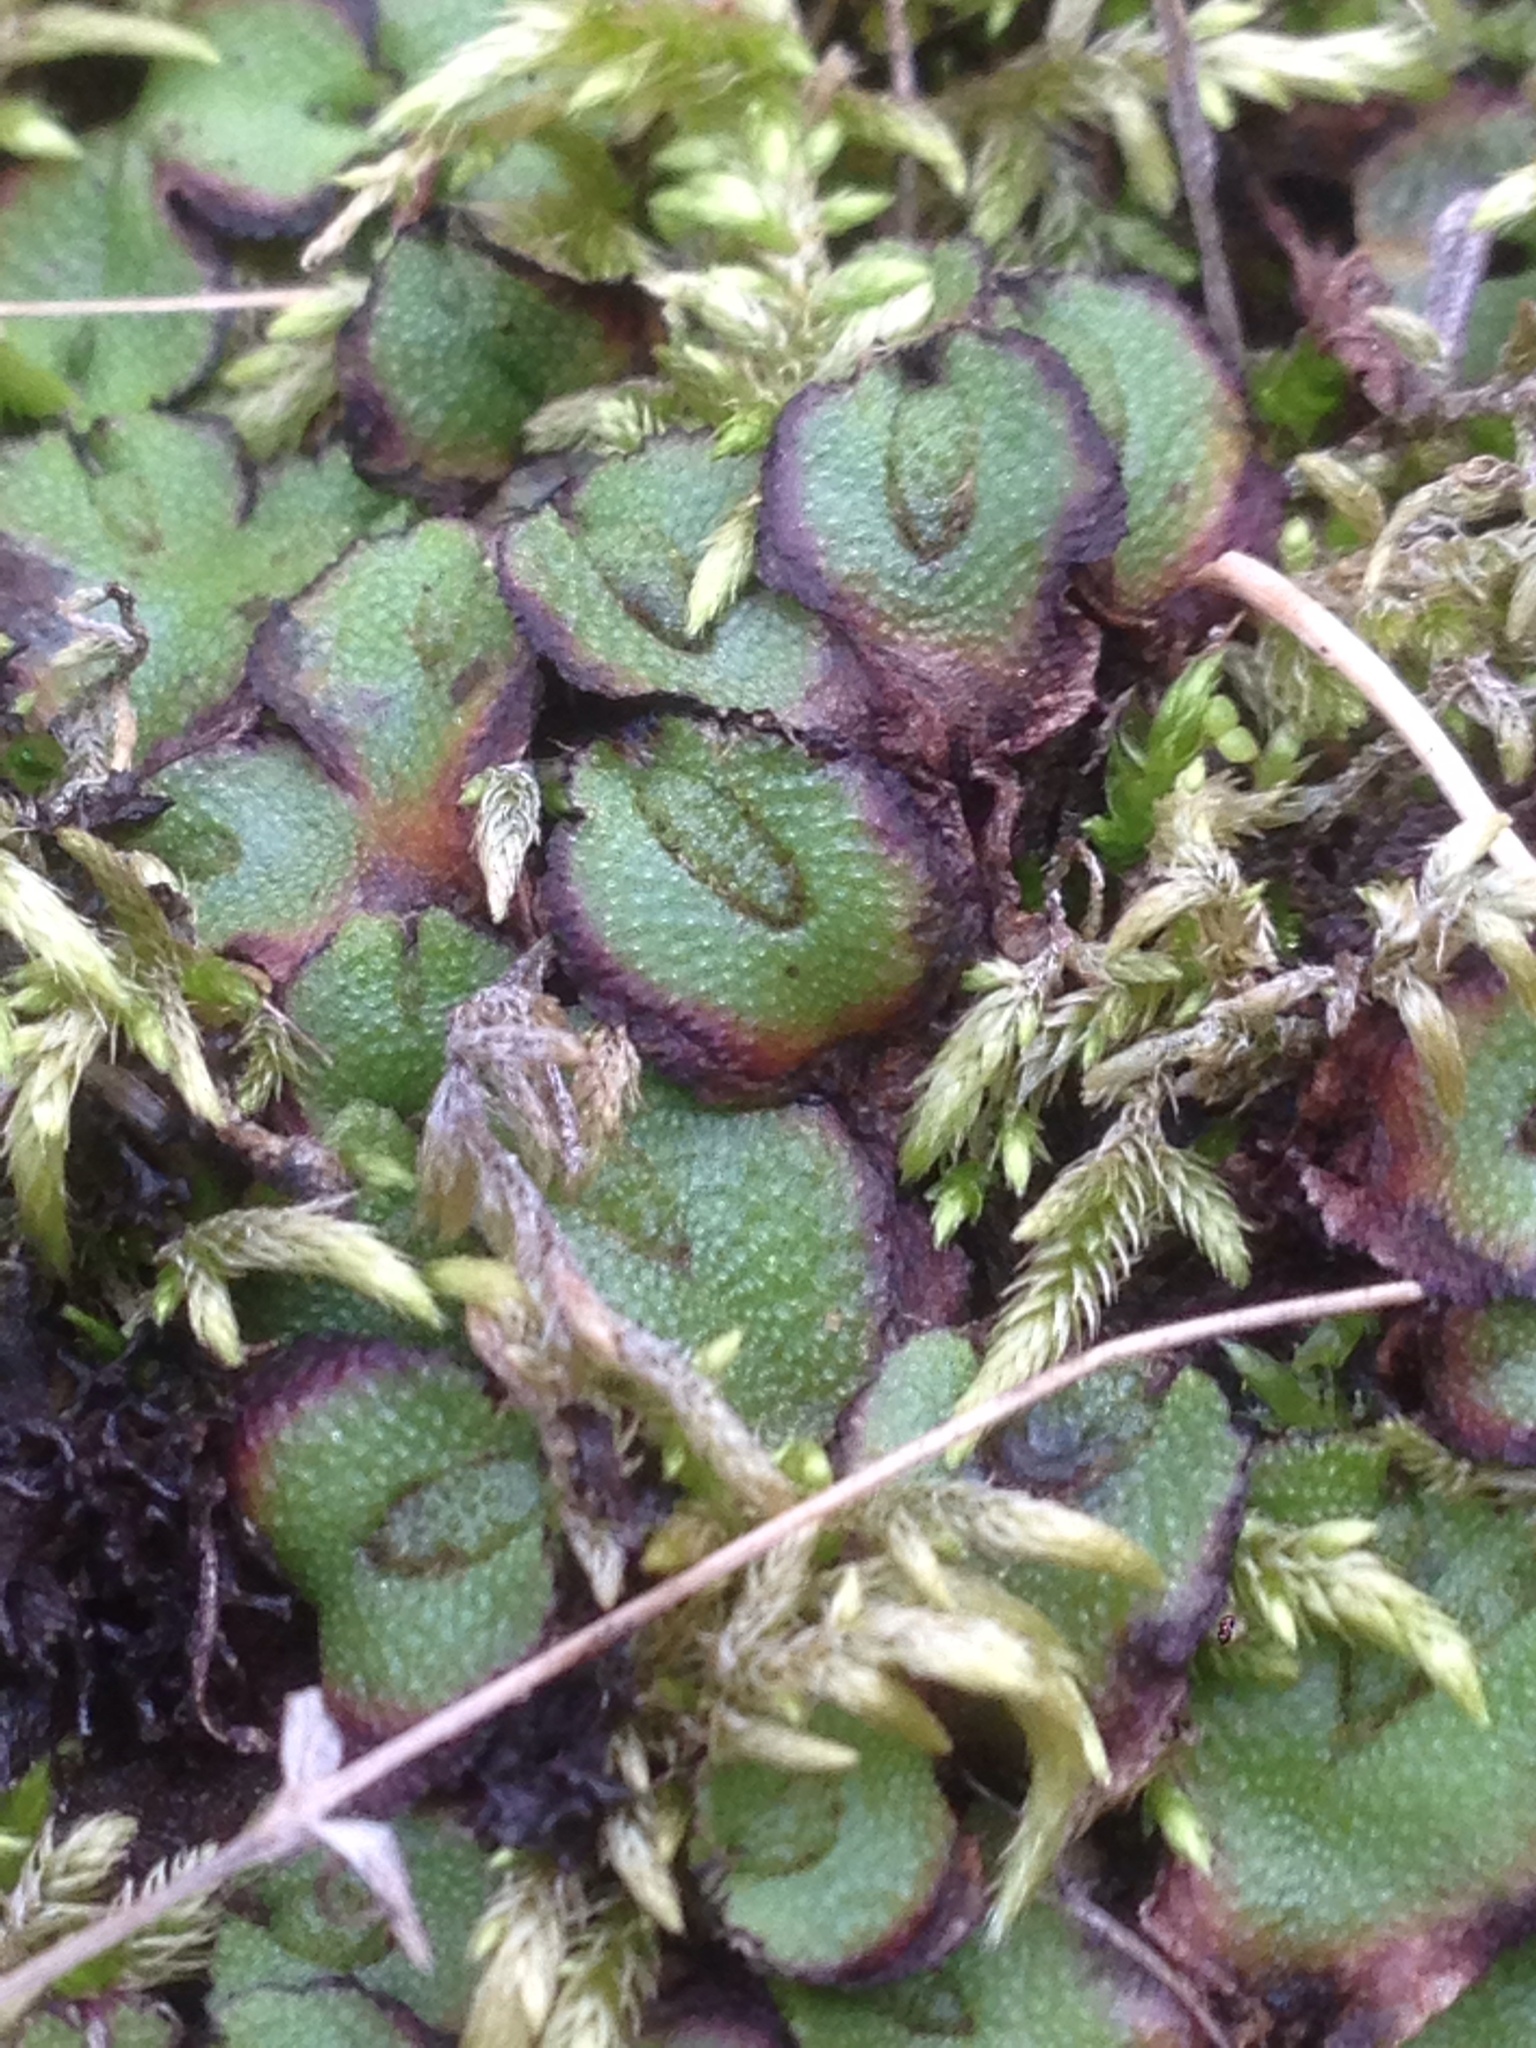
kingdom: Plantae
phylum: Marchantiophyta
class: Marchantiopsida
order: Marchantiales
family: Aytoniaceae
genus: Asterella
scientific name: Asterella californica
